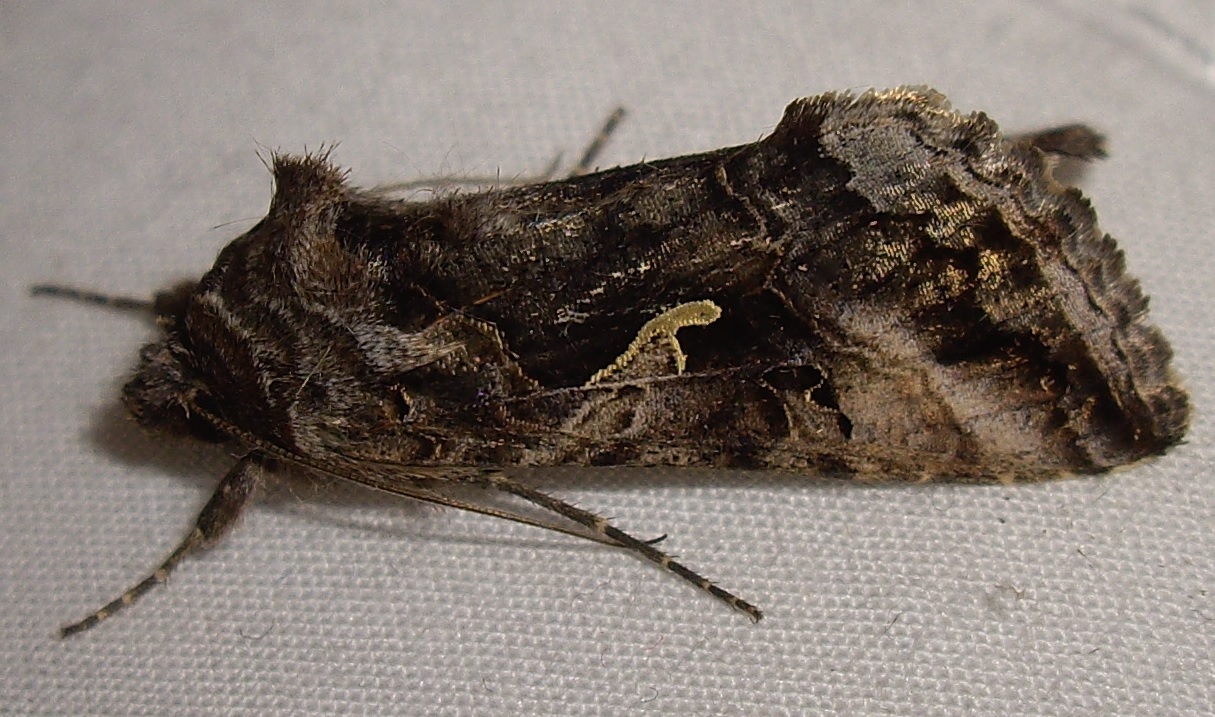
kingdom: Animalia
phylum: Arthropoda
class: Insecta
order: Lepidoptera
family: Noctuidae
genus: Autographa
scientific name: Autographa gamma
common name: Silver y
